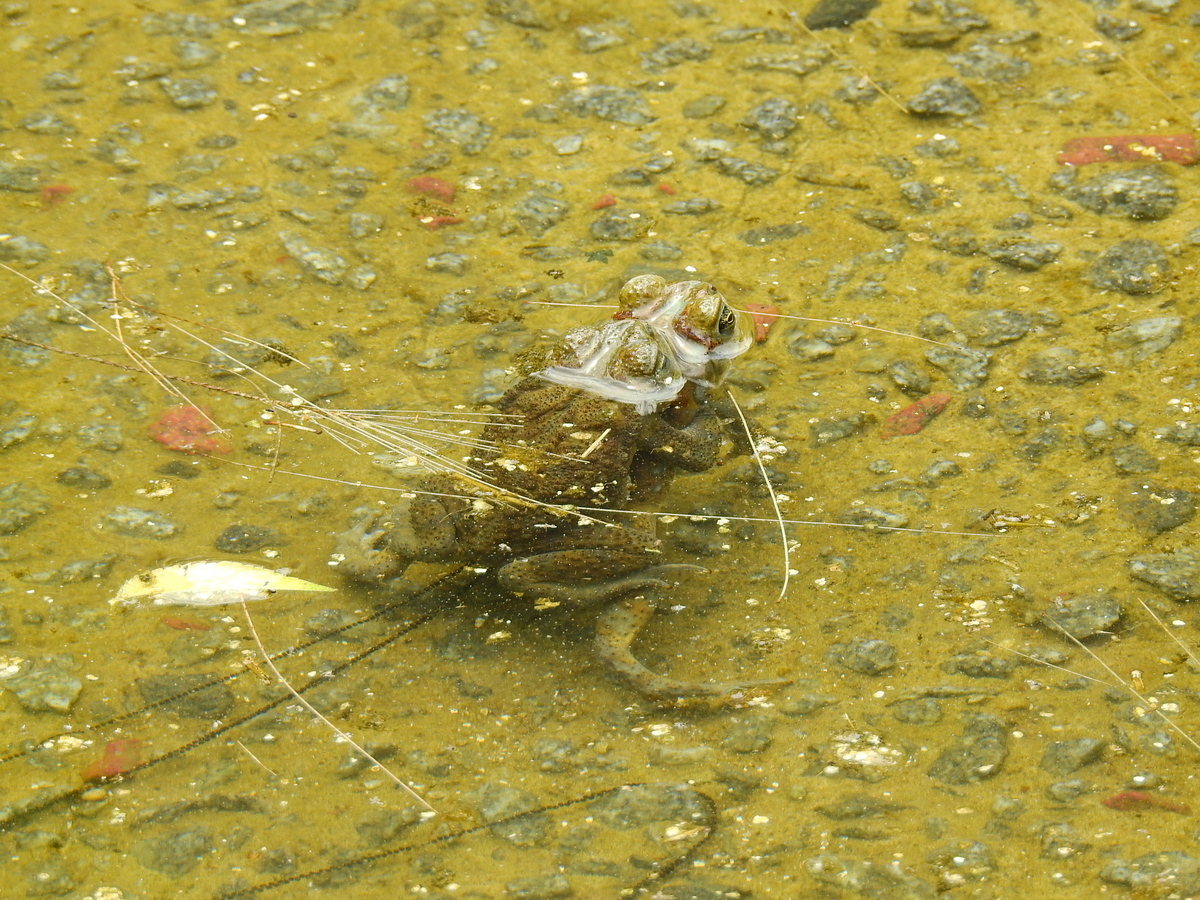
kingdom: Animalia
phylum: Chordata
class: Amphibia
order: Anura
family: Bufonidae
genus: Rhinella
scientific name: Rhinella arenarum
